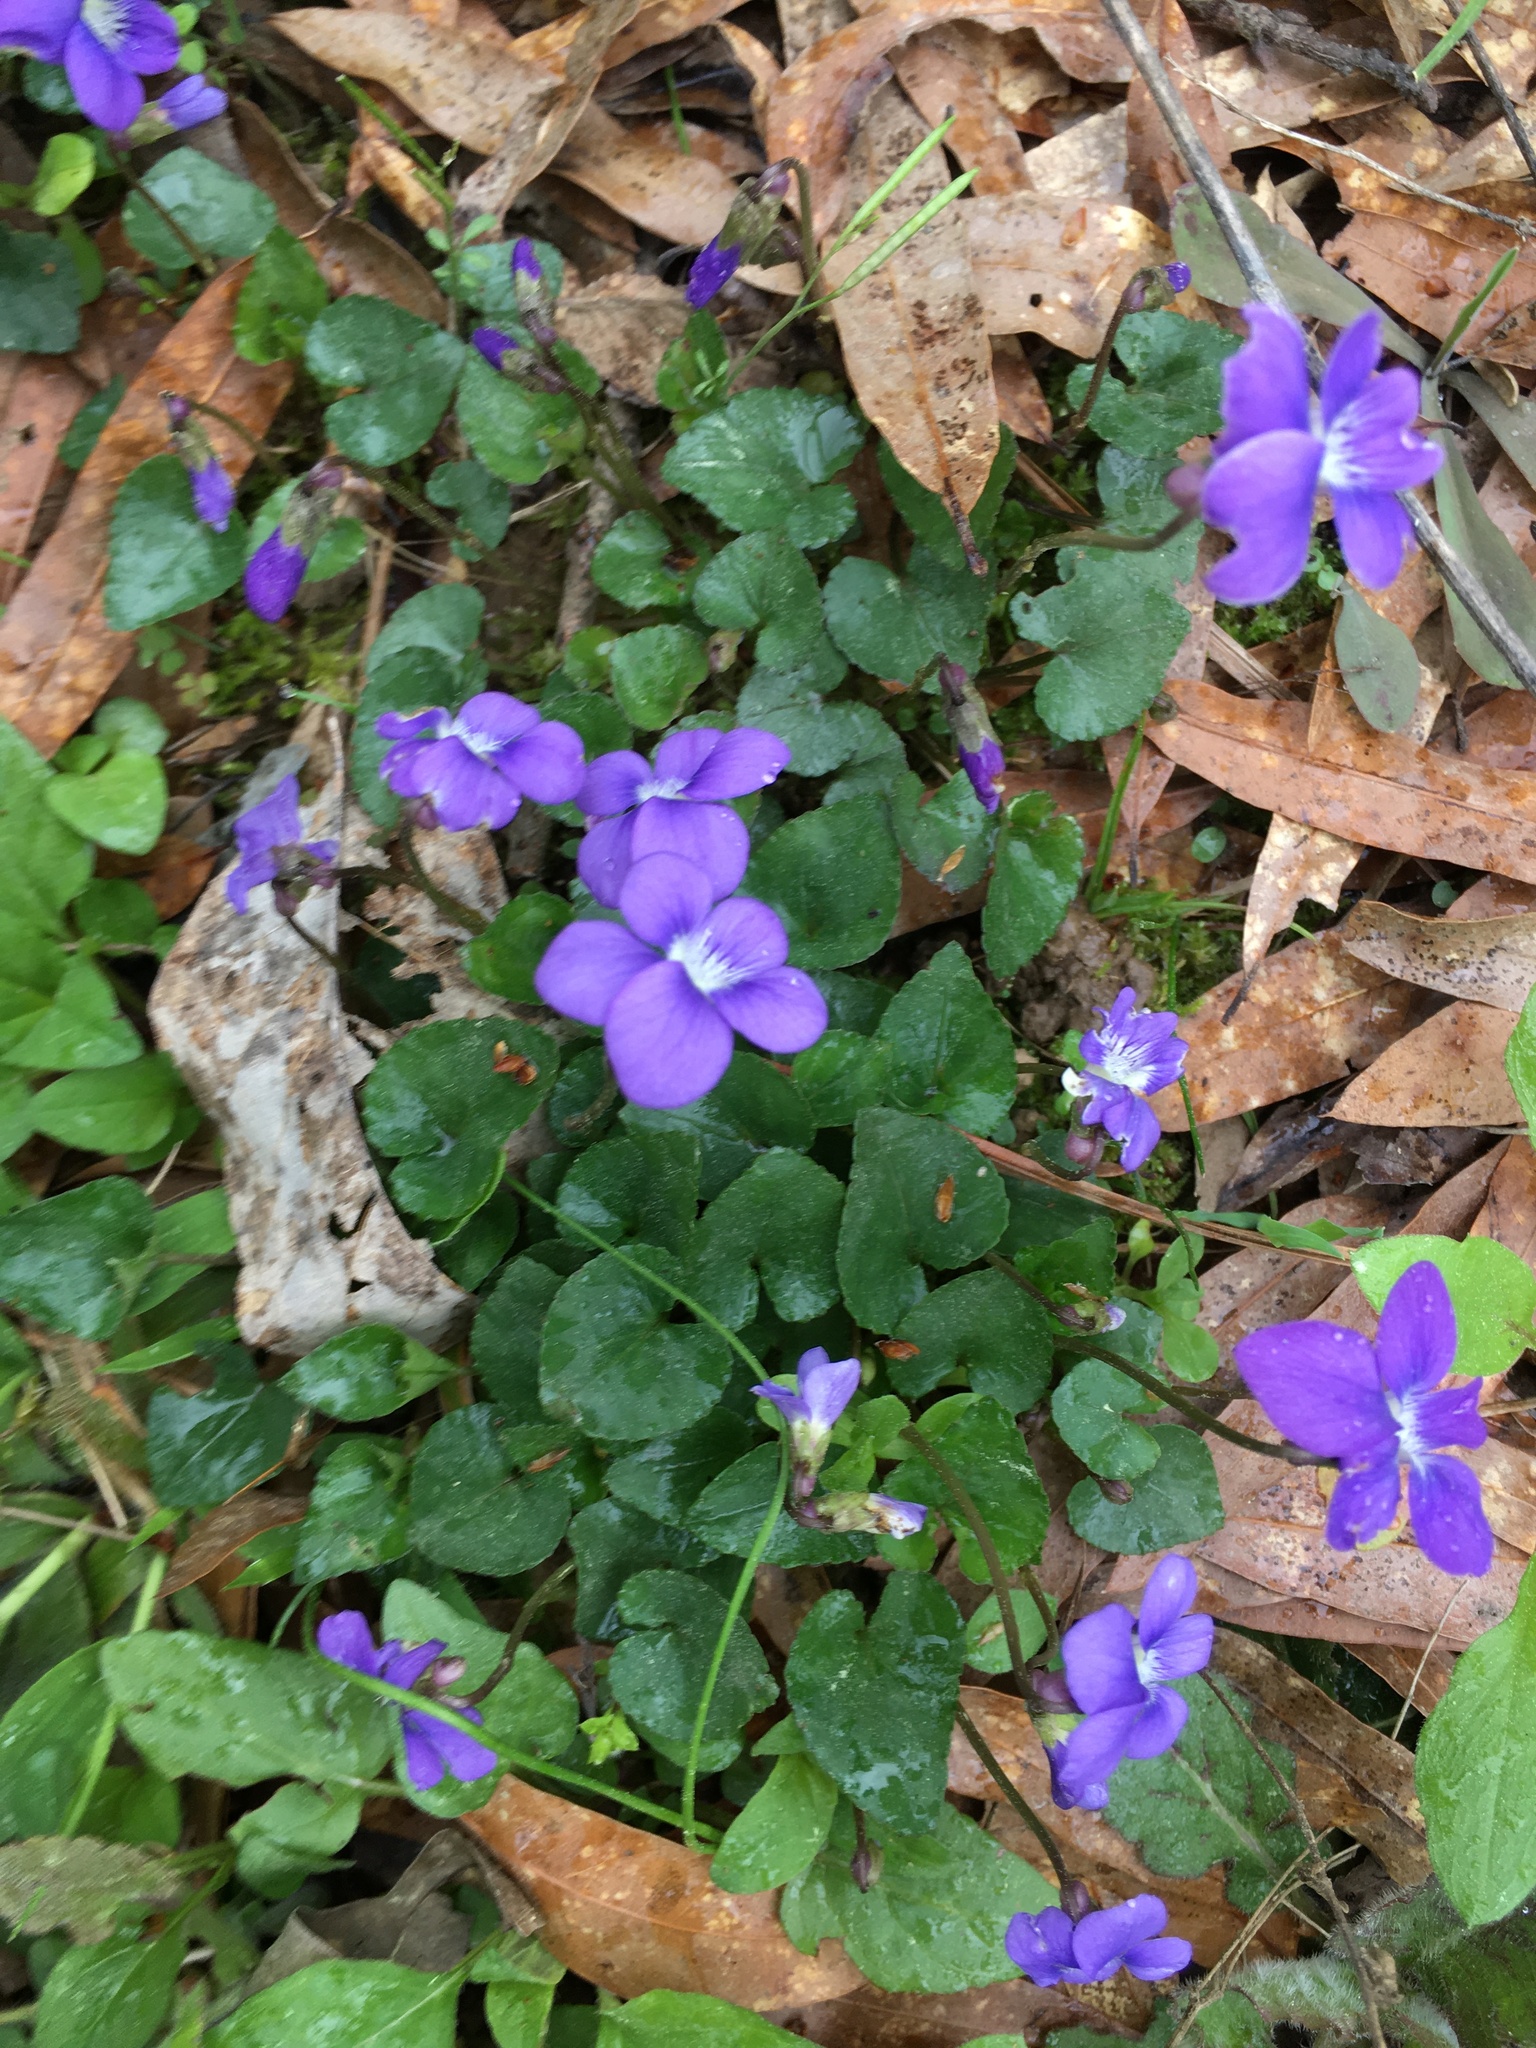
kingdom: Plantae
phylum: Tracheophyta
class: Magnoliopsida
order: Malpighiales
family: Violaceae
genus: Viola
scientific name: Viola sororia
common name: Dooryard violet
